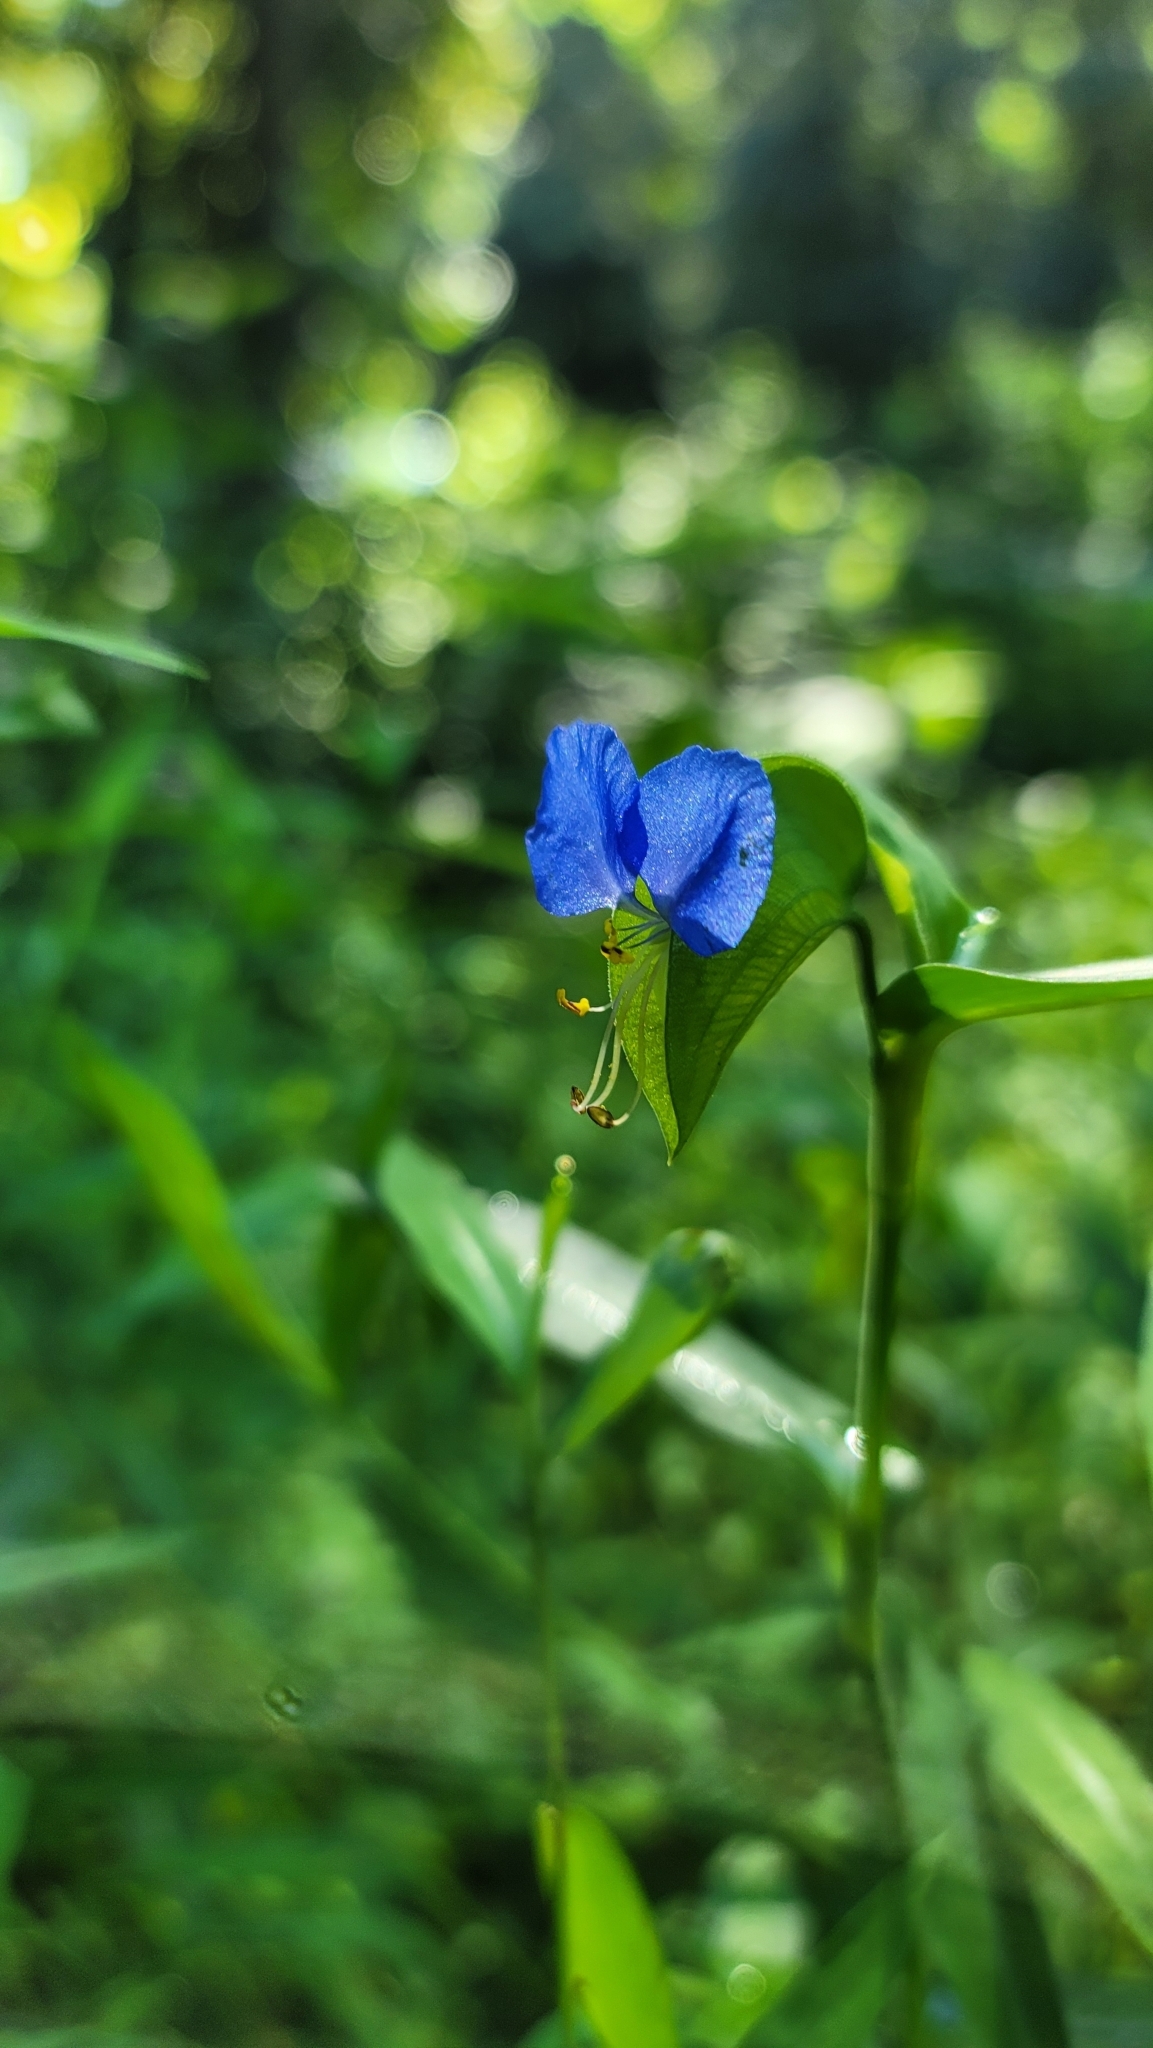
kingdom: Plantae
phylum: Tracheophyta
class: Liliopsida
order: Commelinales
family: Commelinaceae
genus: Commelina
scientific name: Commelina communis
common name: Asiatic dayflower
